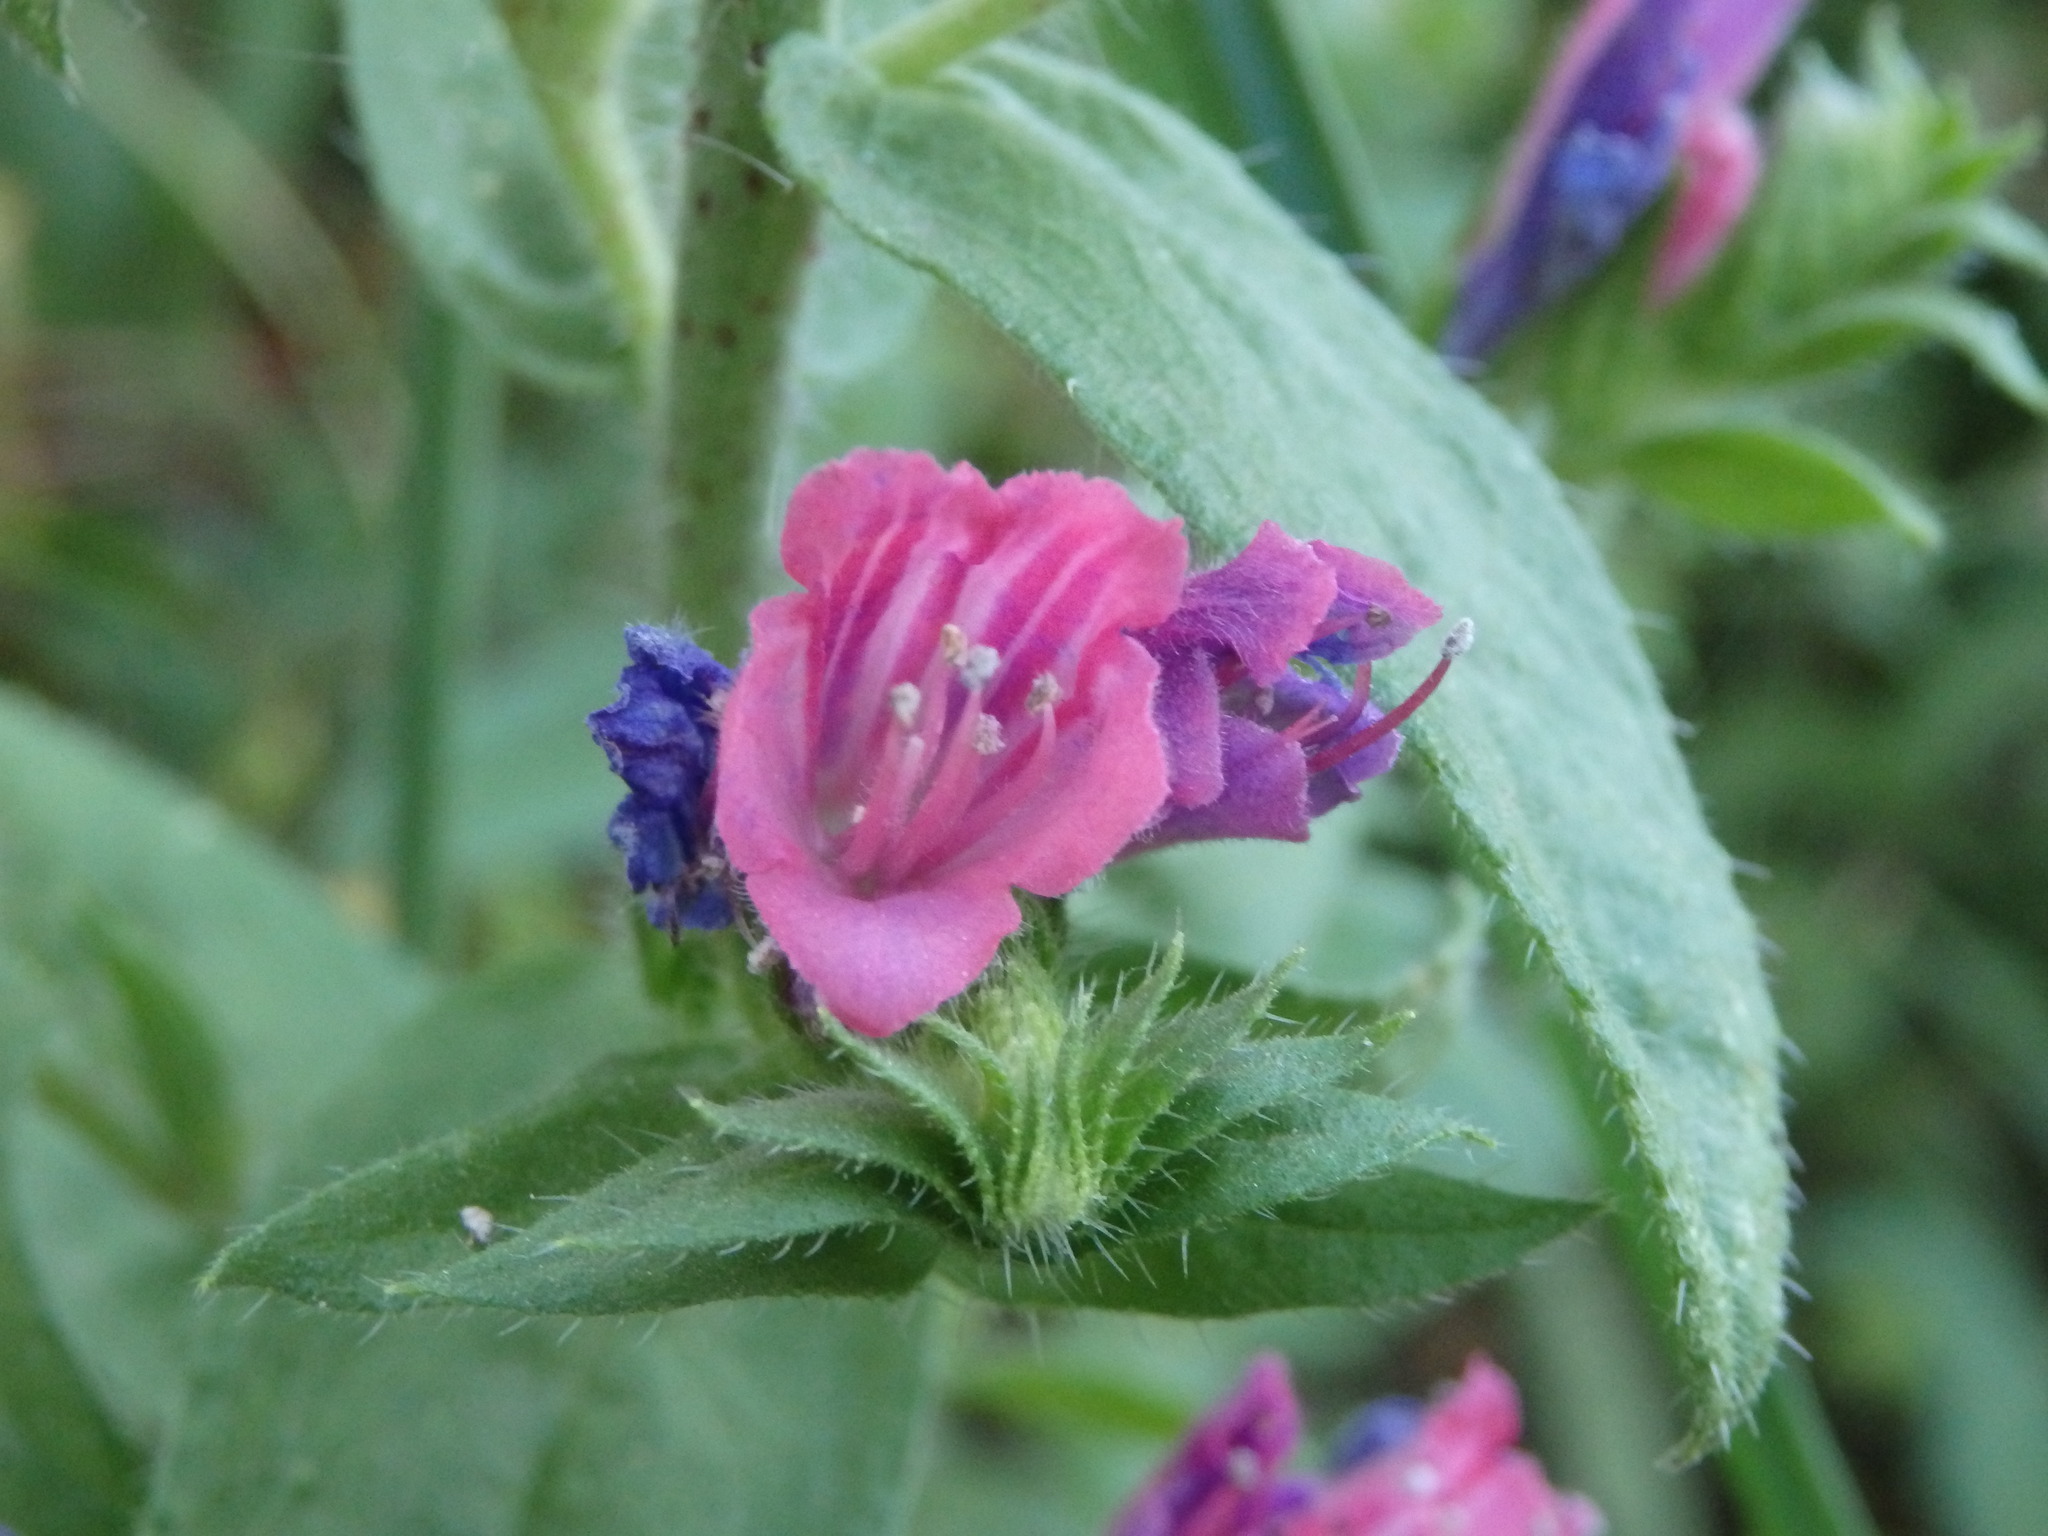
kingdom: Plantae
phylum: Tracheophyta
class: Magnoliopsida
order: Boraginales
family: Boraginaceae
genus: Echium
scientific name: Echium rosulatum
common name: Lax viper's-bugloss
